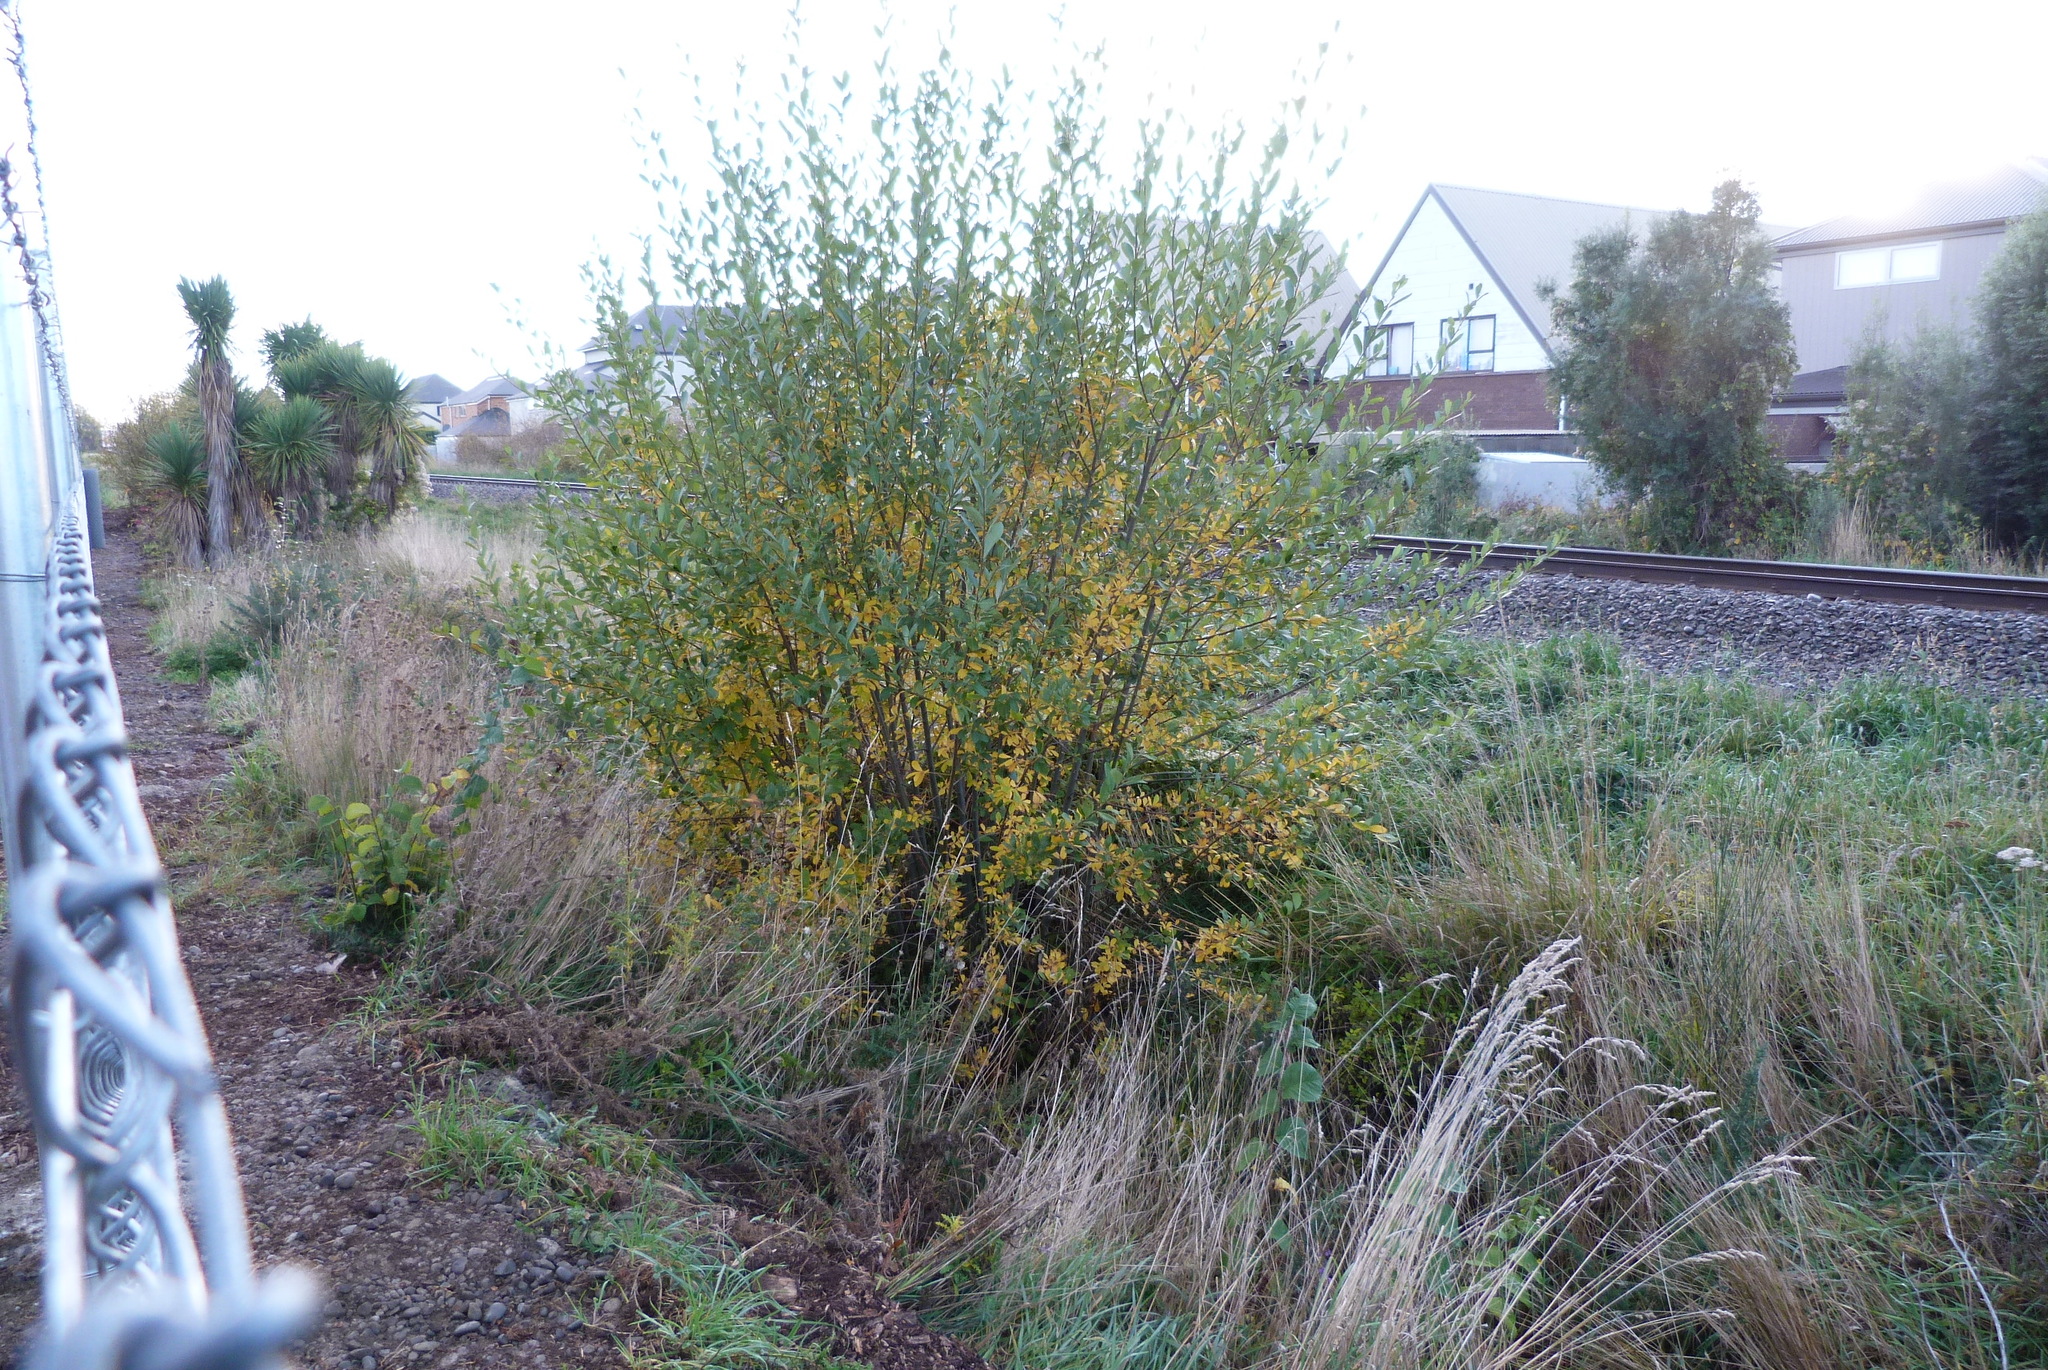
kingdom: Plantae
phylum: Tracheophyta
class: Magnoliopsida
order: Malpighiales
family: Salicaceae
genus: Salix
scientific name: Salix cinerea
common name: Common sallow
